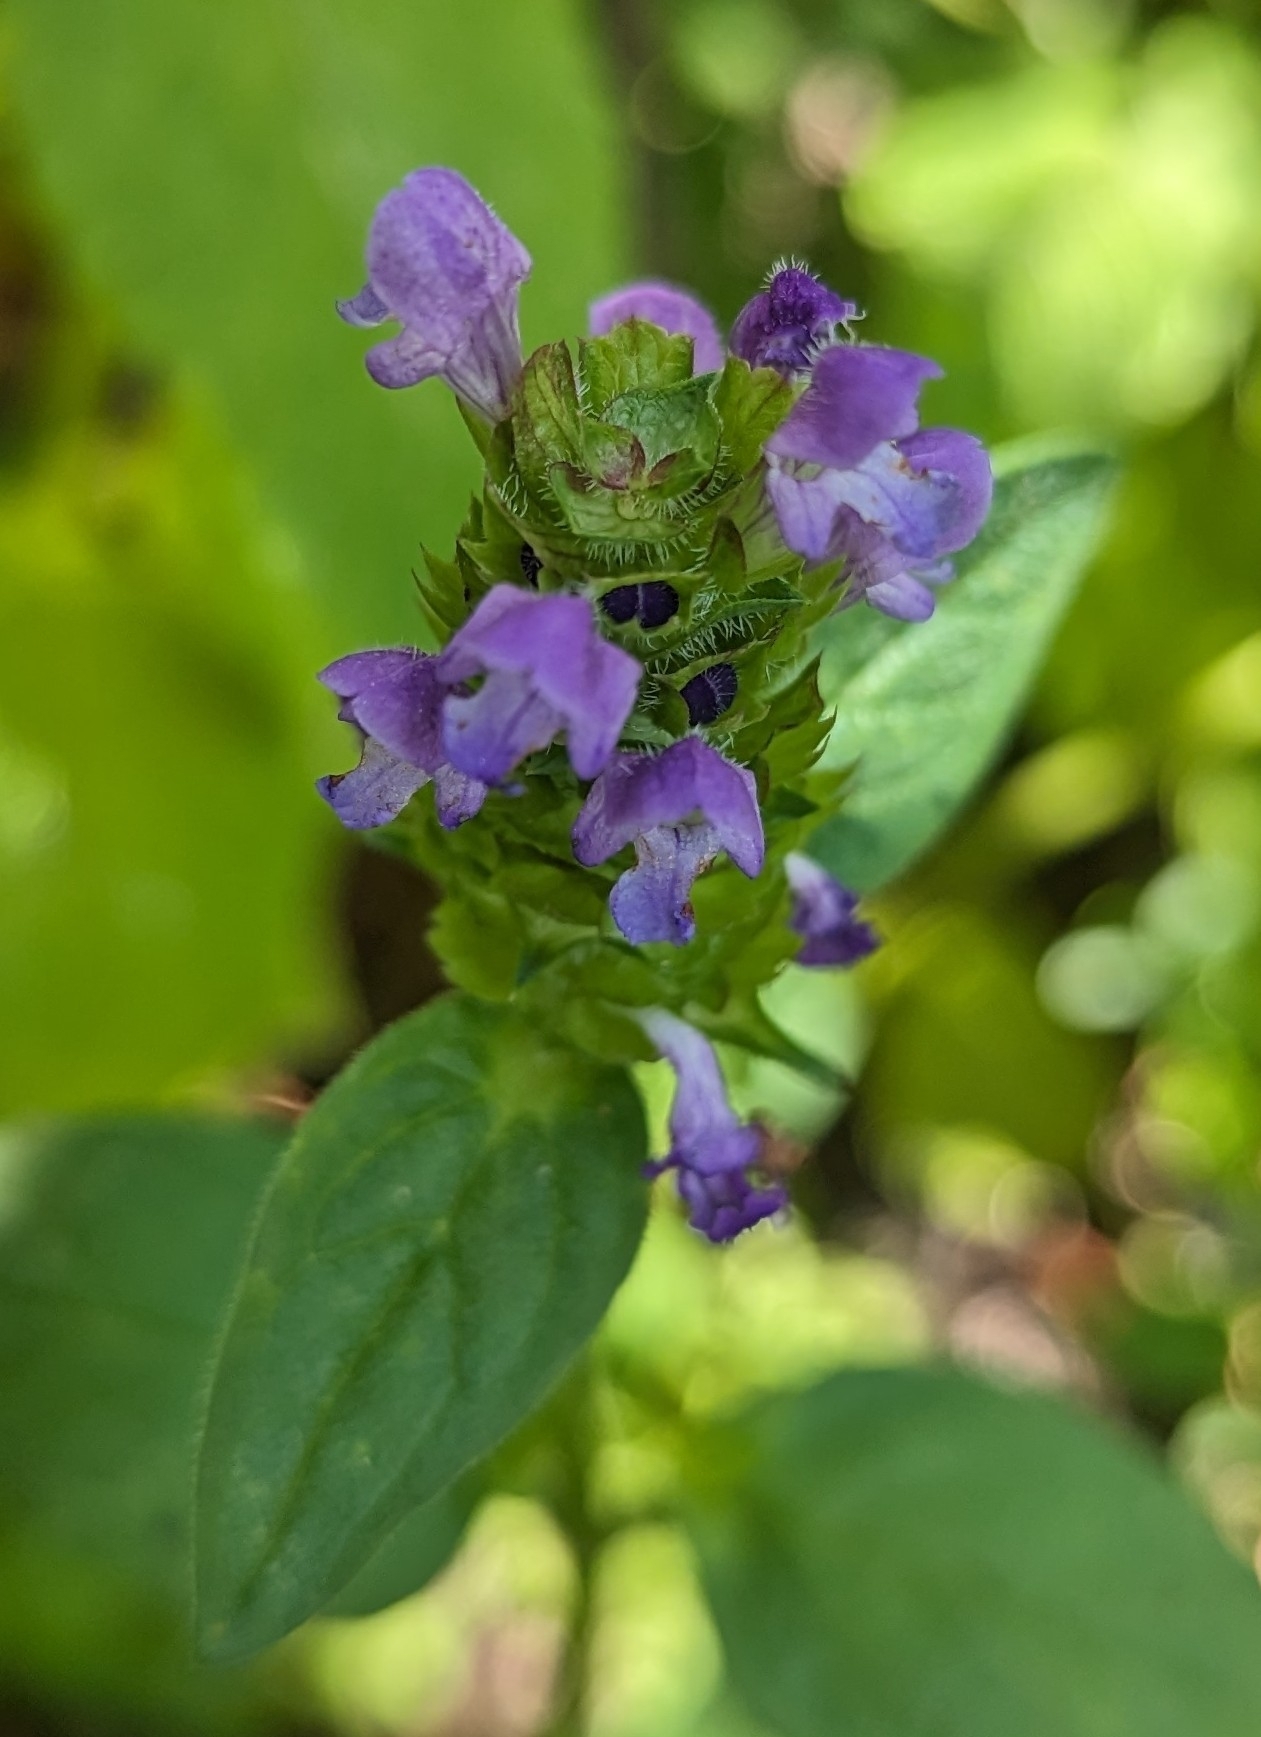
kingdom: Plantae
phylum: Tracheophyta
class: Magnoliopsida
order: Lamiales
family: Lamiaceae
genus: Prunella
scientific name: Prunella vulgaris
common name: Heal-all
